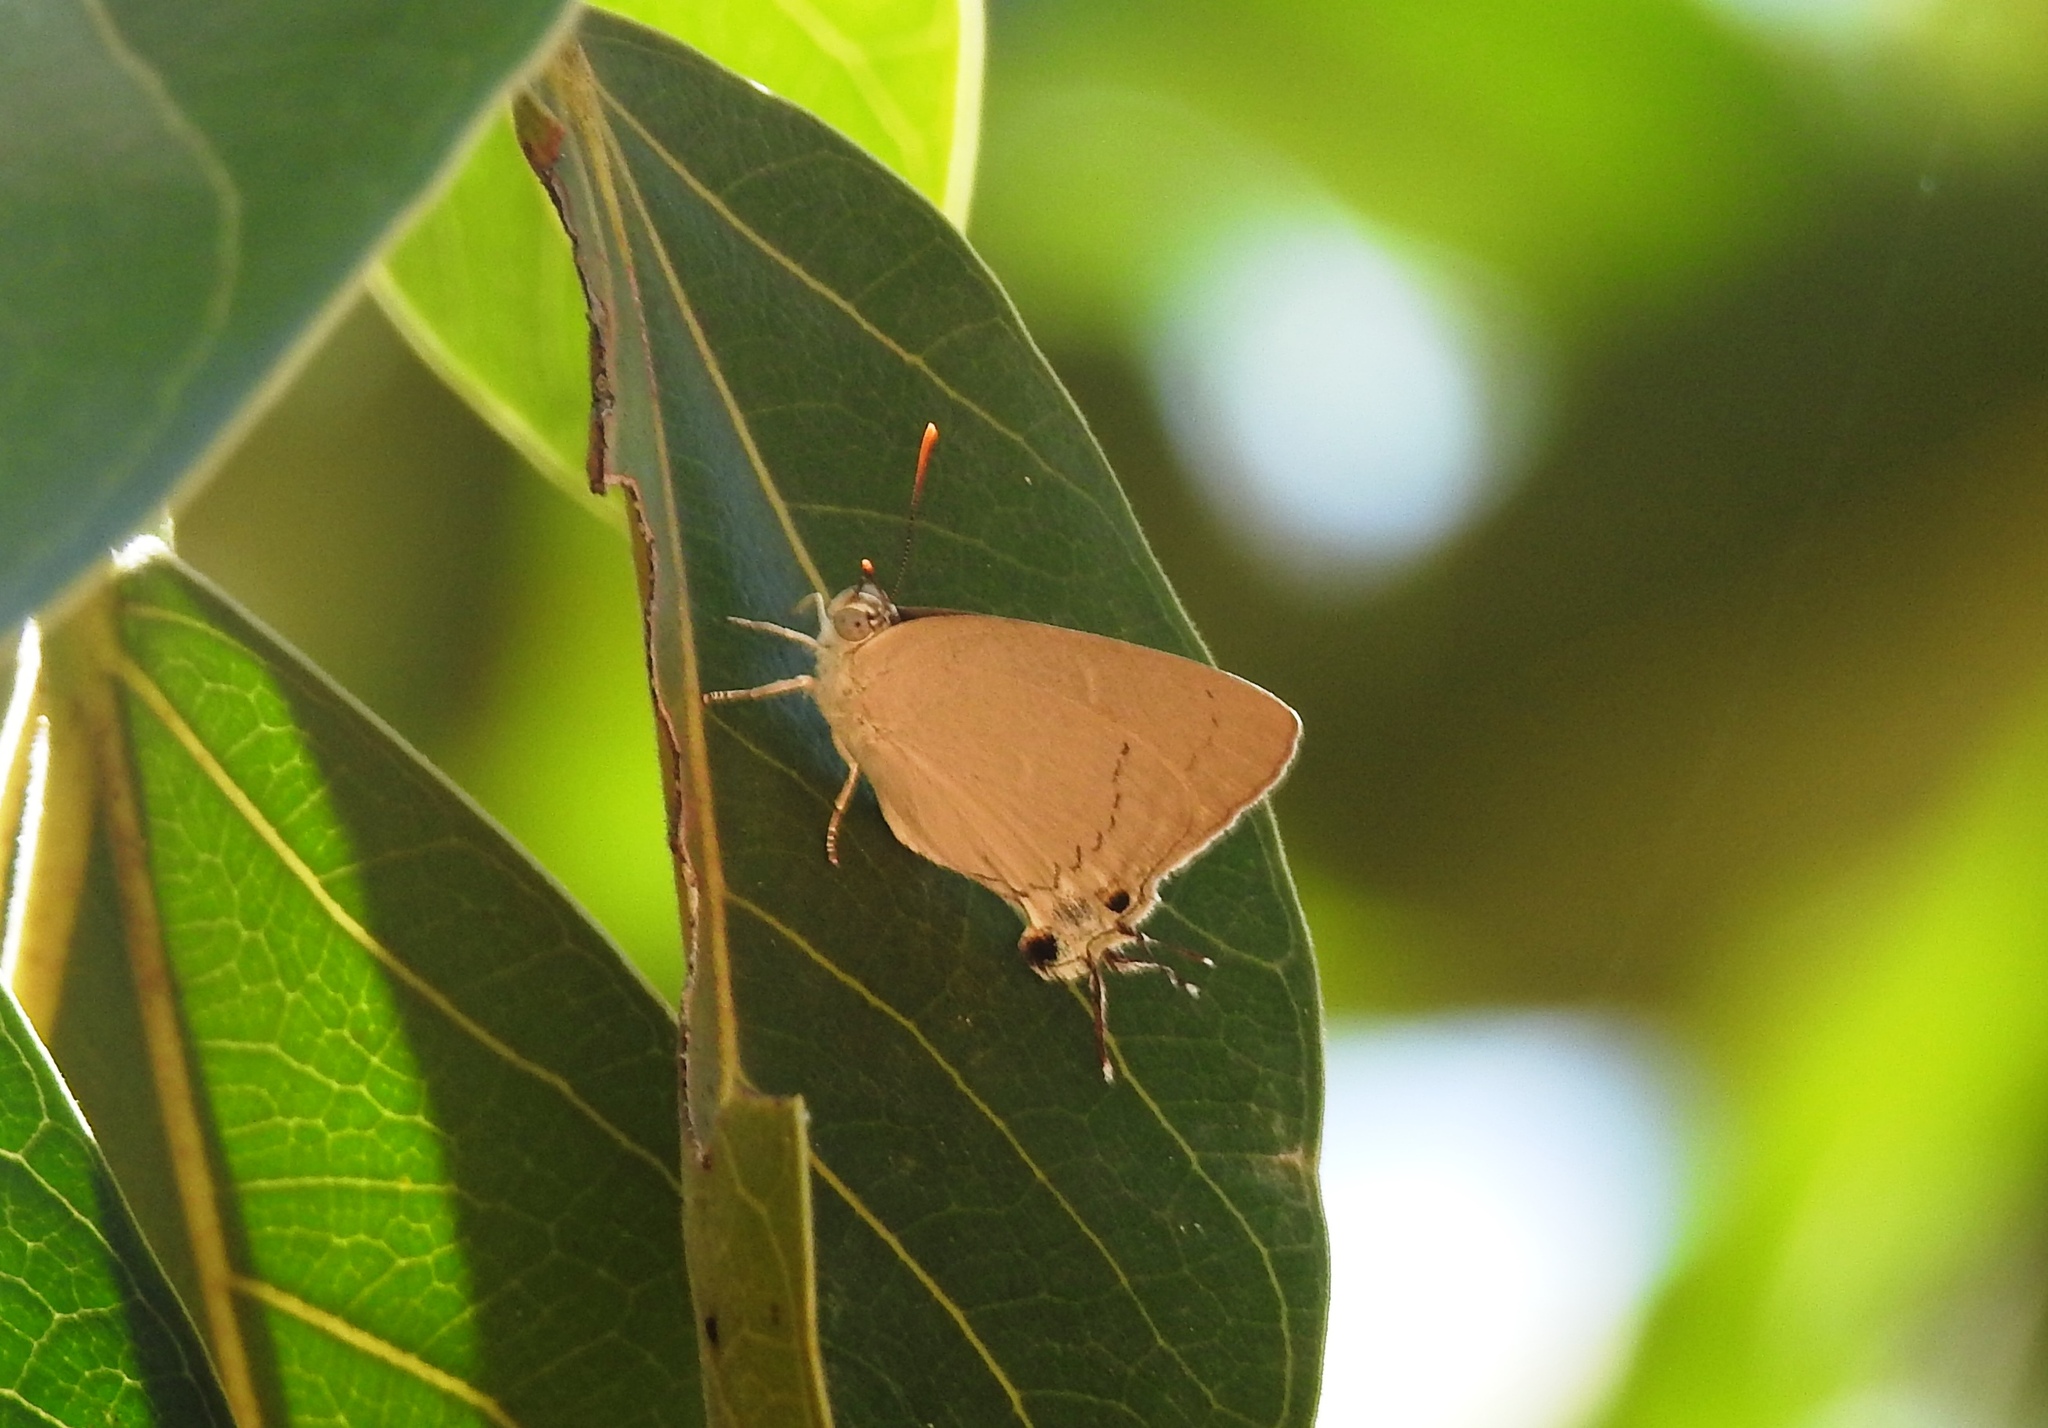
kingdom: Animalia
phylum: Arthropoda
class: Insecta
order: Lepidoptera
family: Lycaenidae
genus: Tajuria
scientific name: Tajuria jehana
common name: Plains blue royal
